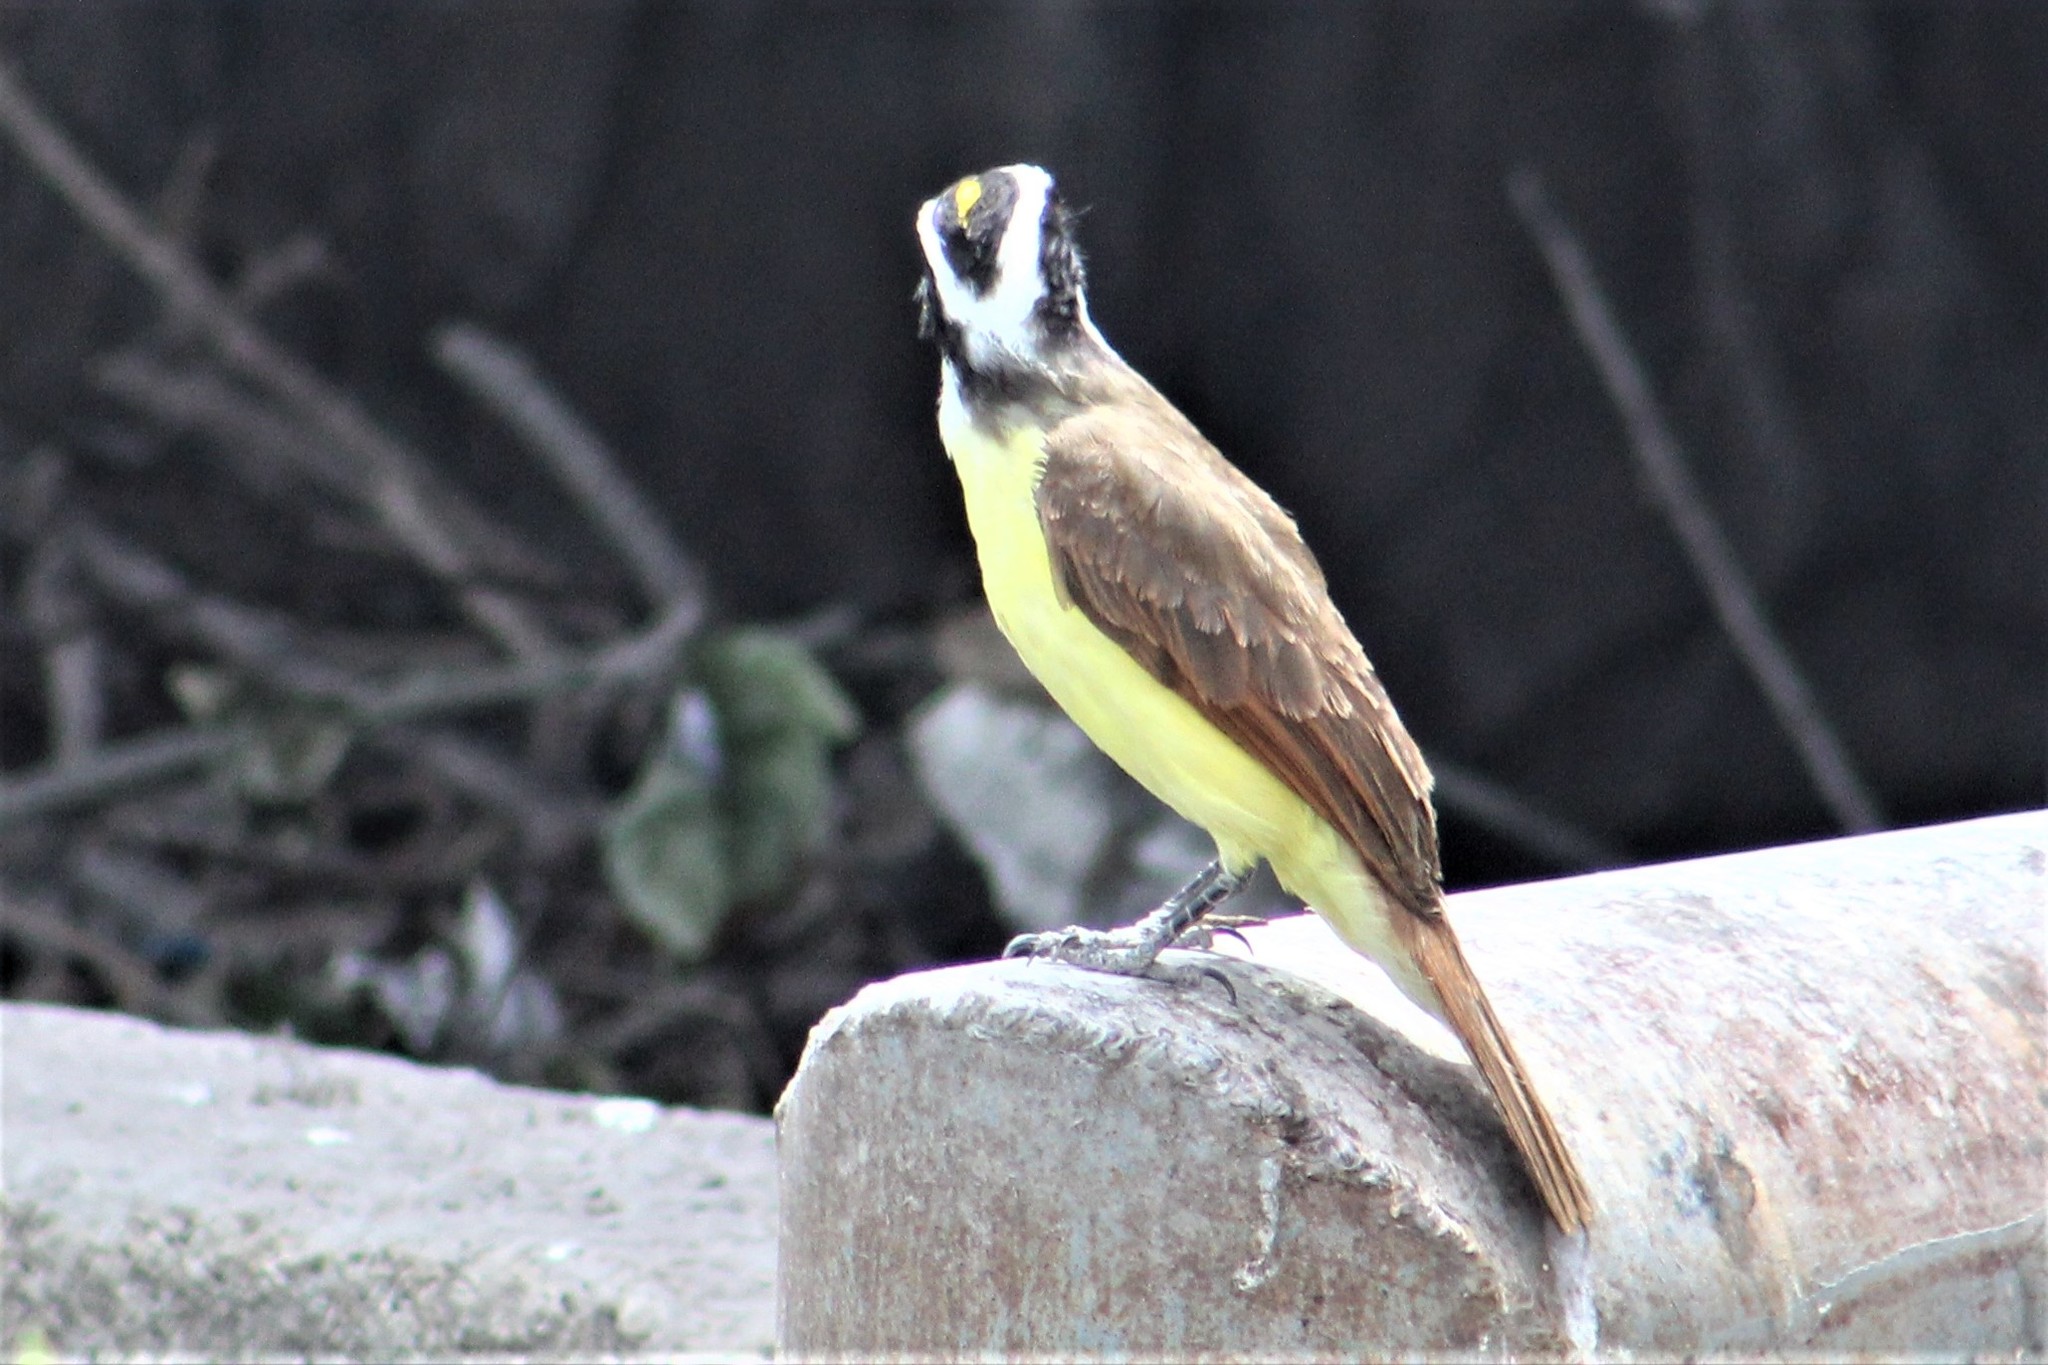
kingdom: Animalia
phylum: Chordata
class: Aves
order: Passeriformes
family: Tyrannidae
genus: Pitangus
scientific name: Pitangus sulphuratus
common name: Great kiskadee
